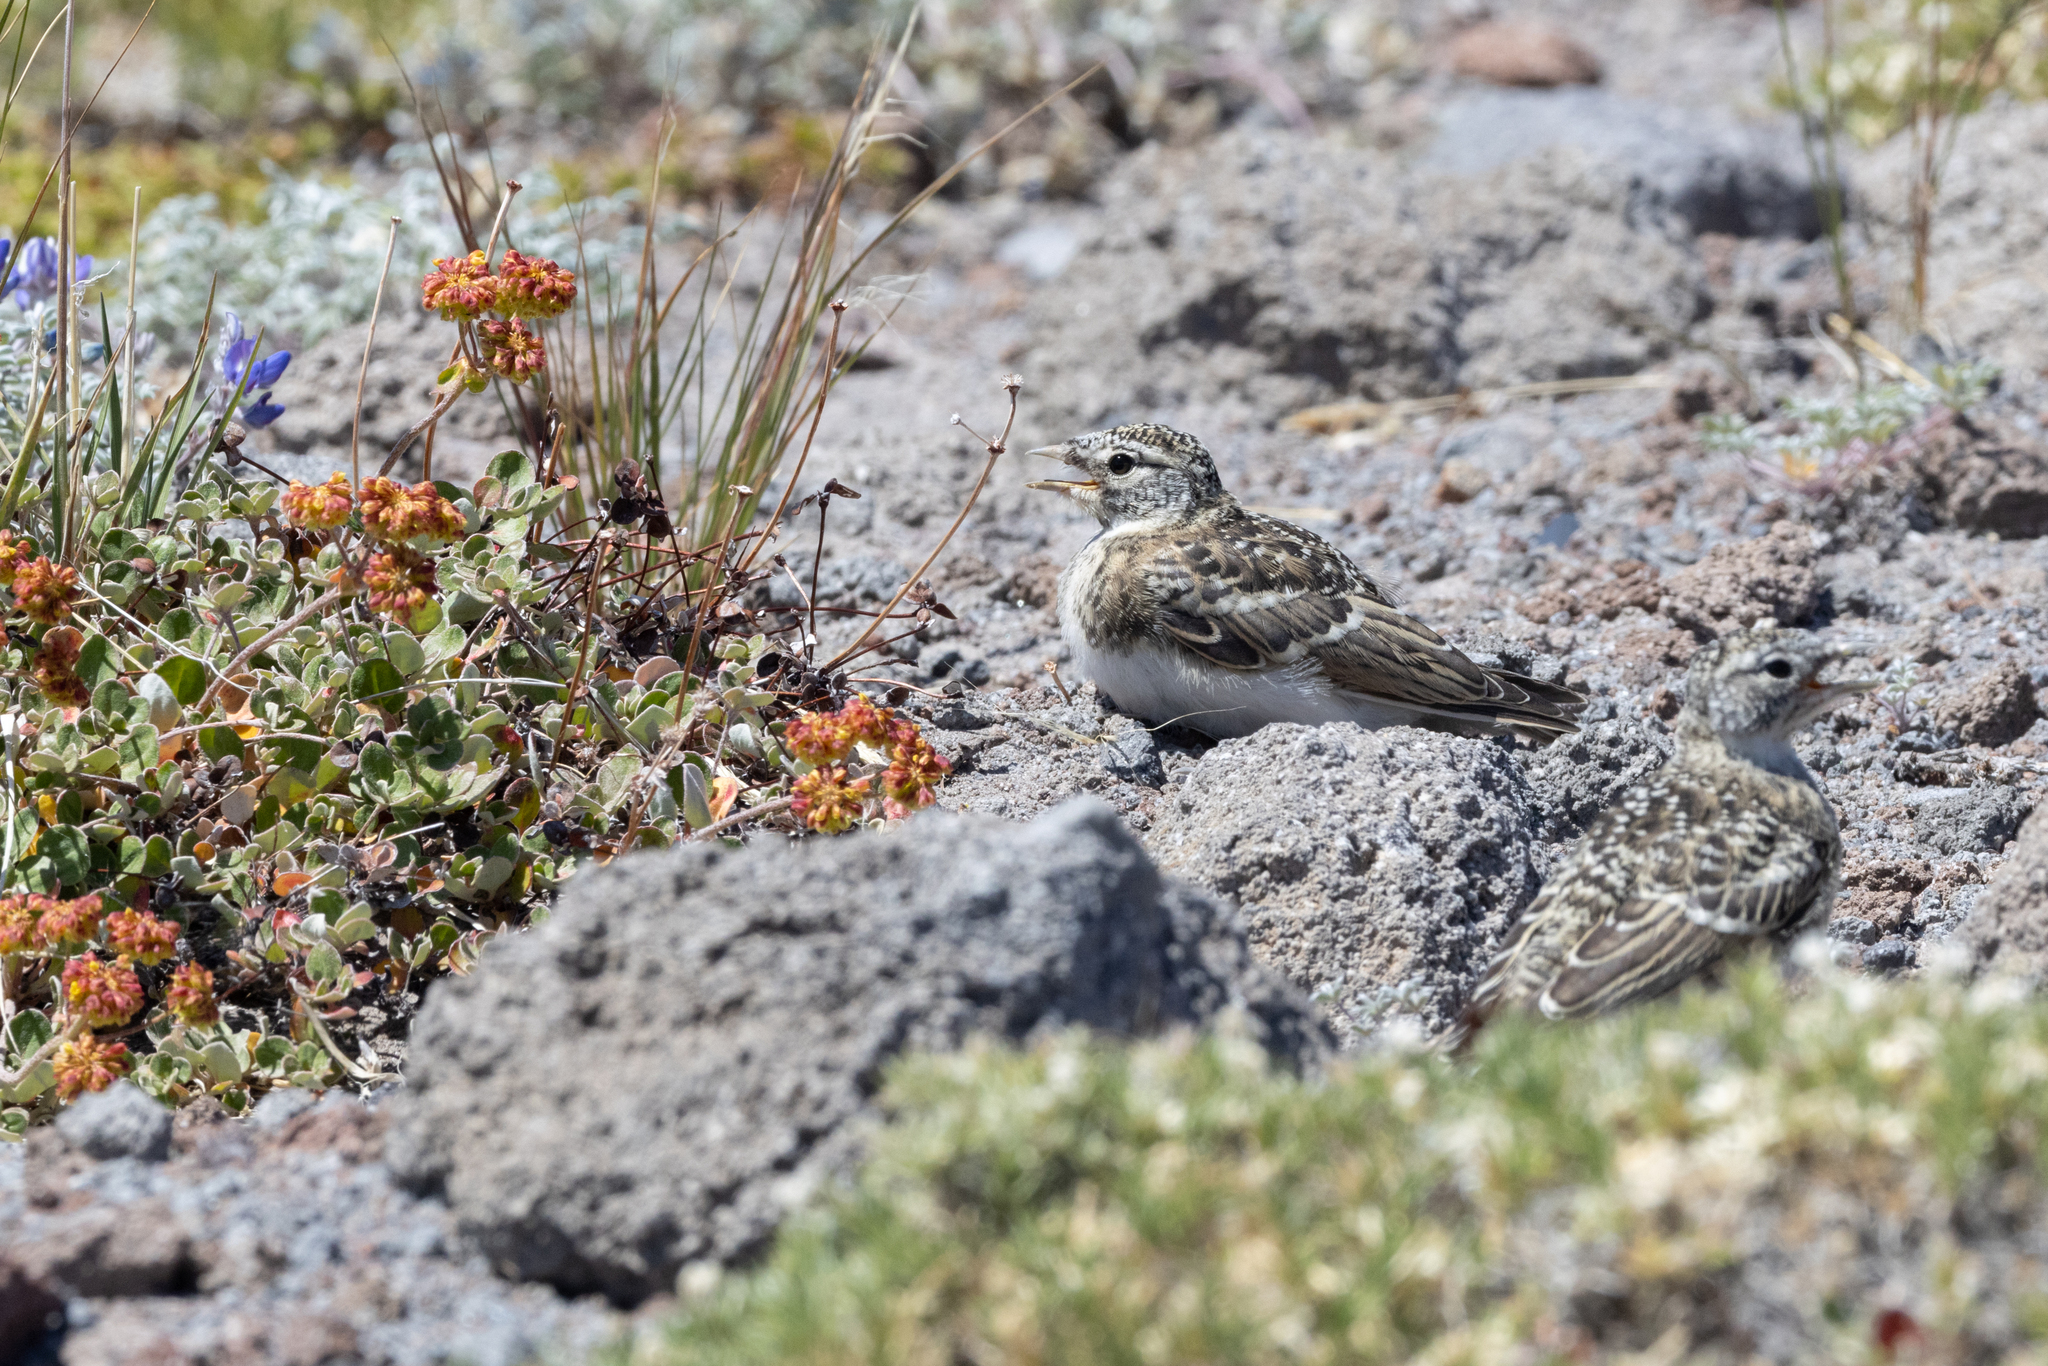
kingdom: Animalia
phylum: Chordata
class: Aves
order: Passeriformes
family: Alaudidae
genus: Eremophila
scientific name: Eremophila alpestris
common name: Horned lark
